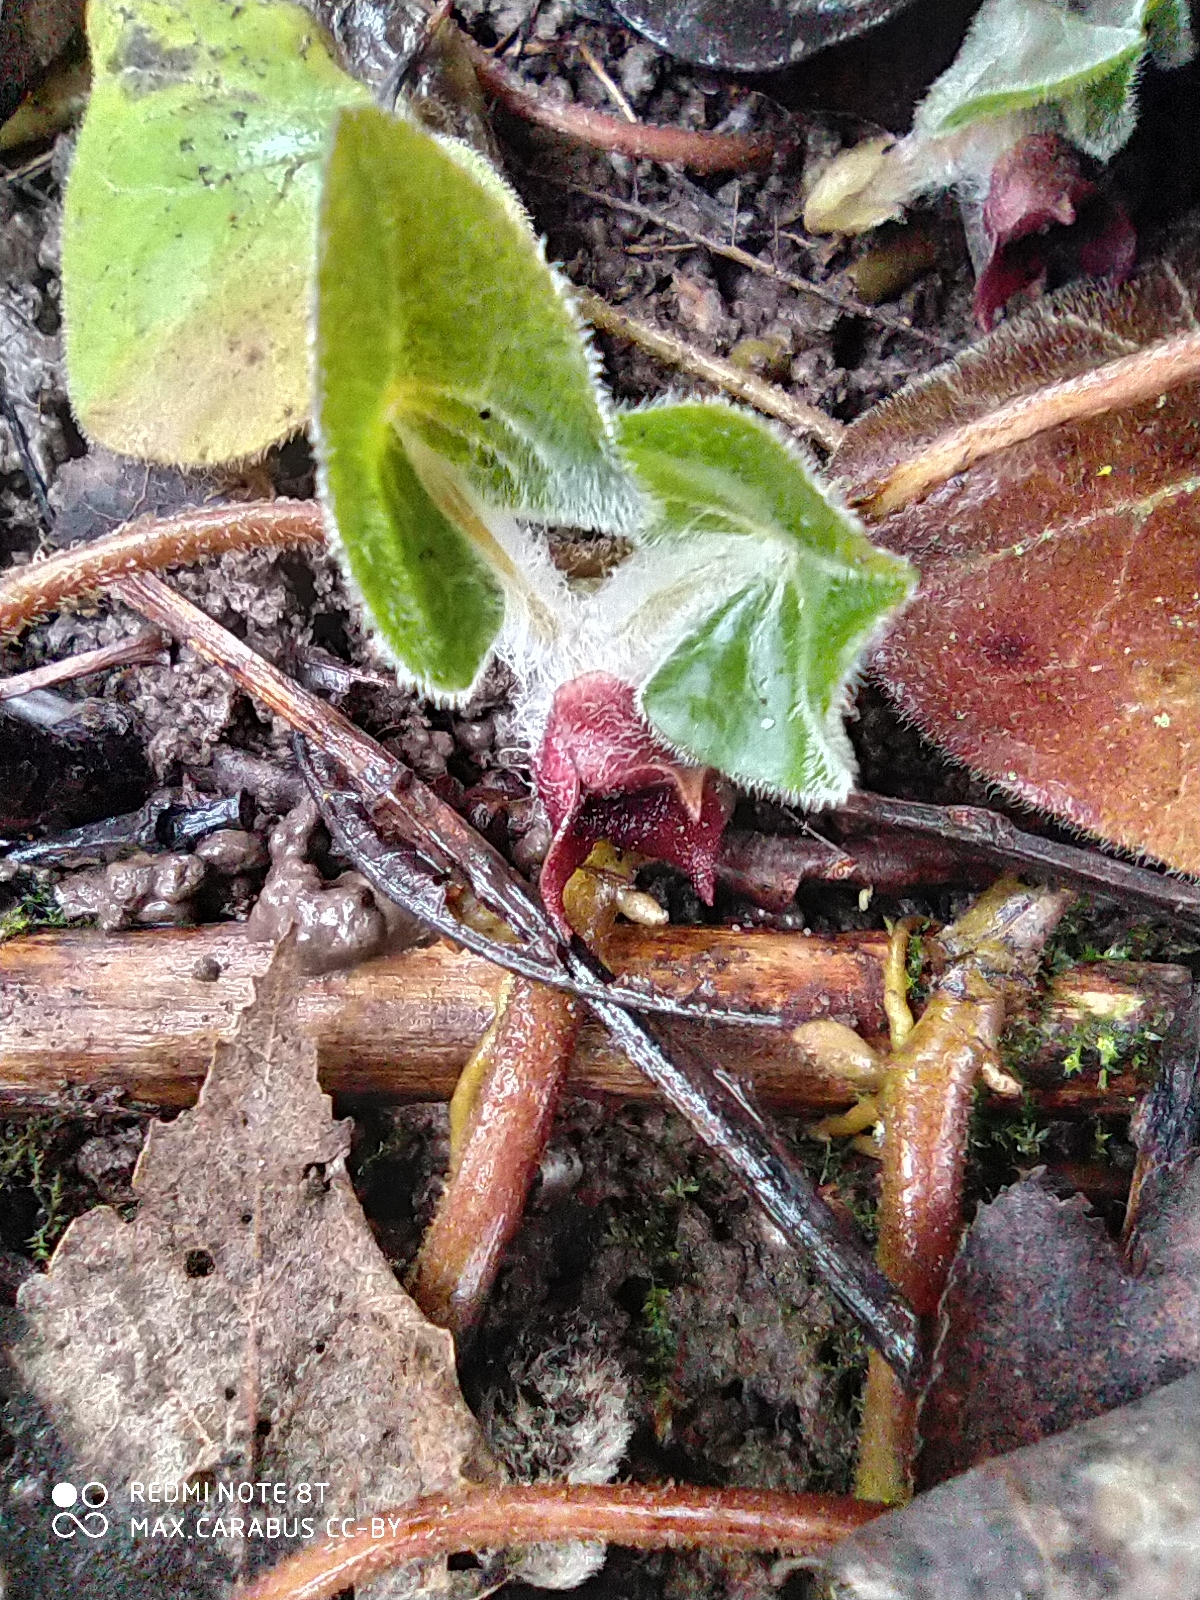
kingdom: Plantae
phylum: Tracheophyta
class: Magnoliopsida
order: Piperales
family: Aristolochiaceae
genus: Asarum
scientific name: Asarum europaeum
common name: Asarabacca
